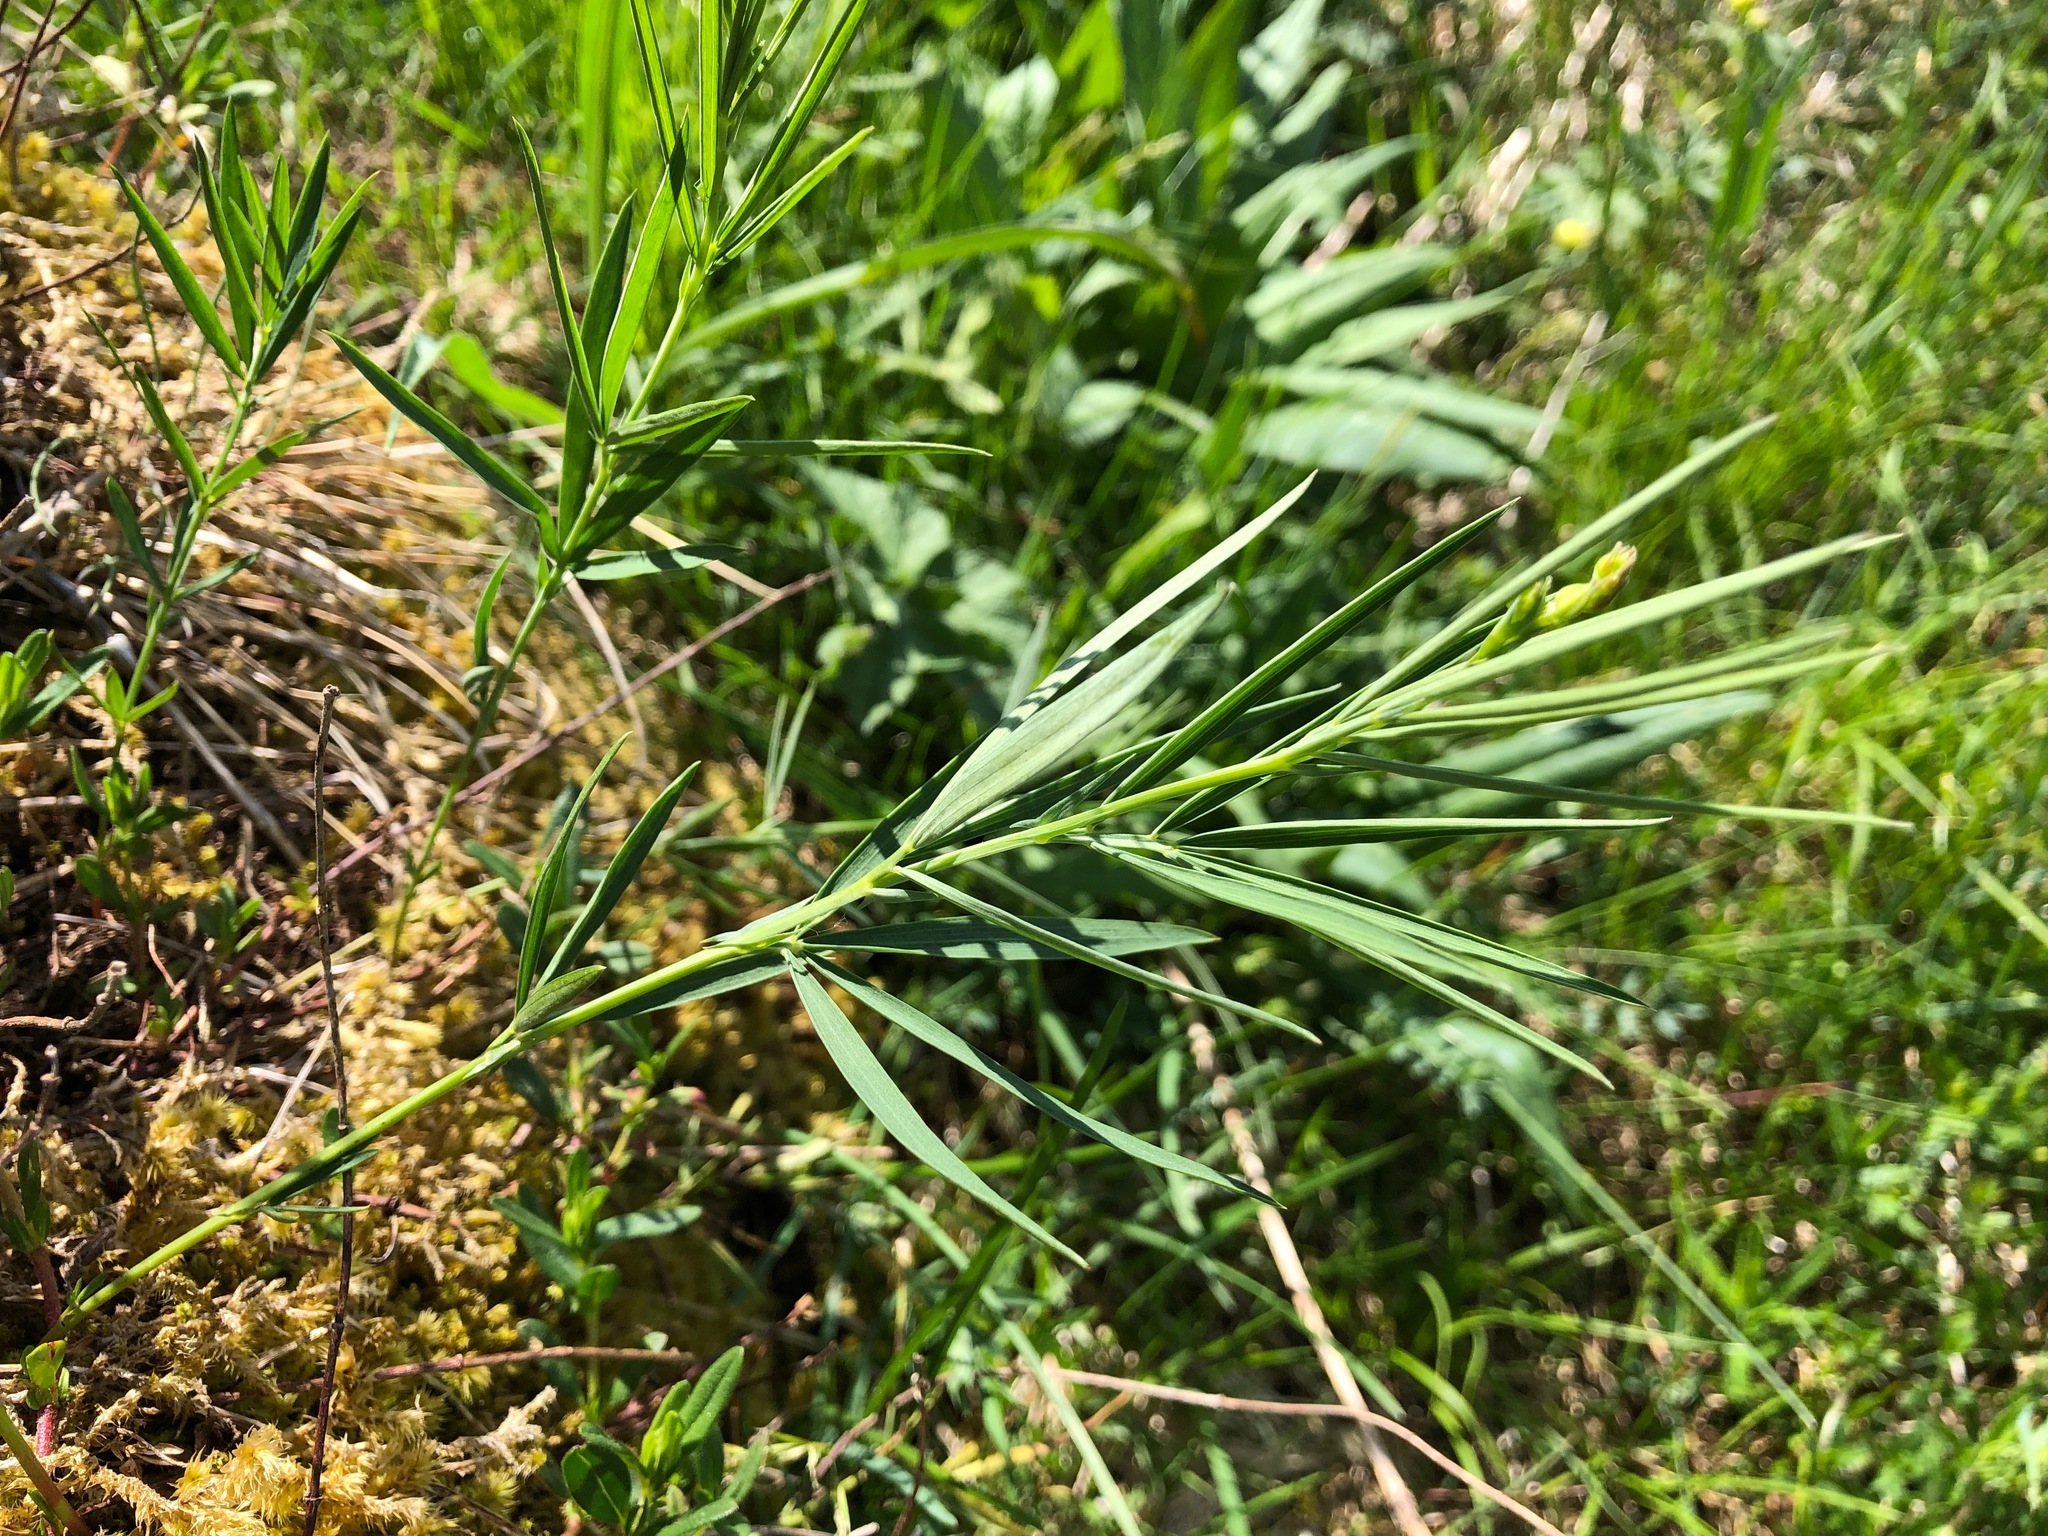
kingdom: Plantae
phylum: Tracheophyta
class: Magnoliopsida
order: Fabales
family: Fabaceae
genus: Lathyrus
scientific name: Lathyrus bauhini
